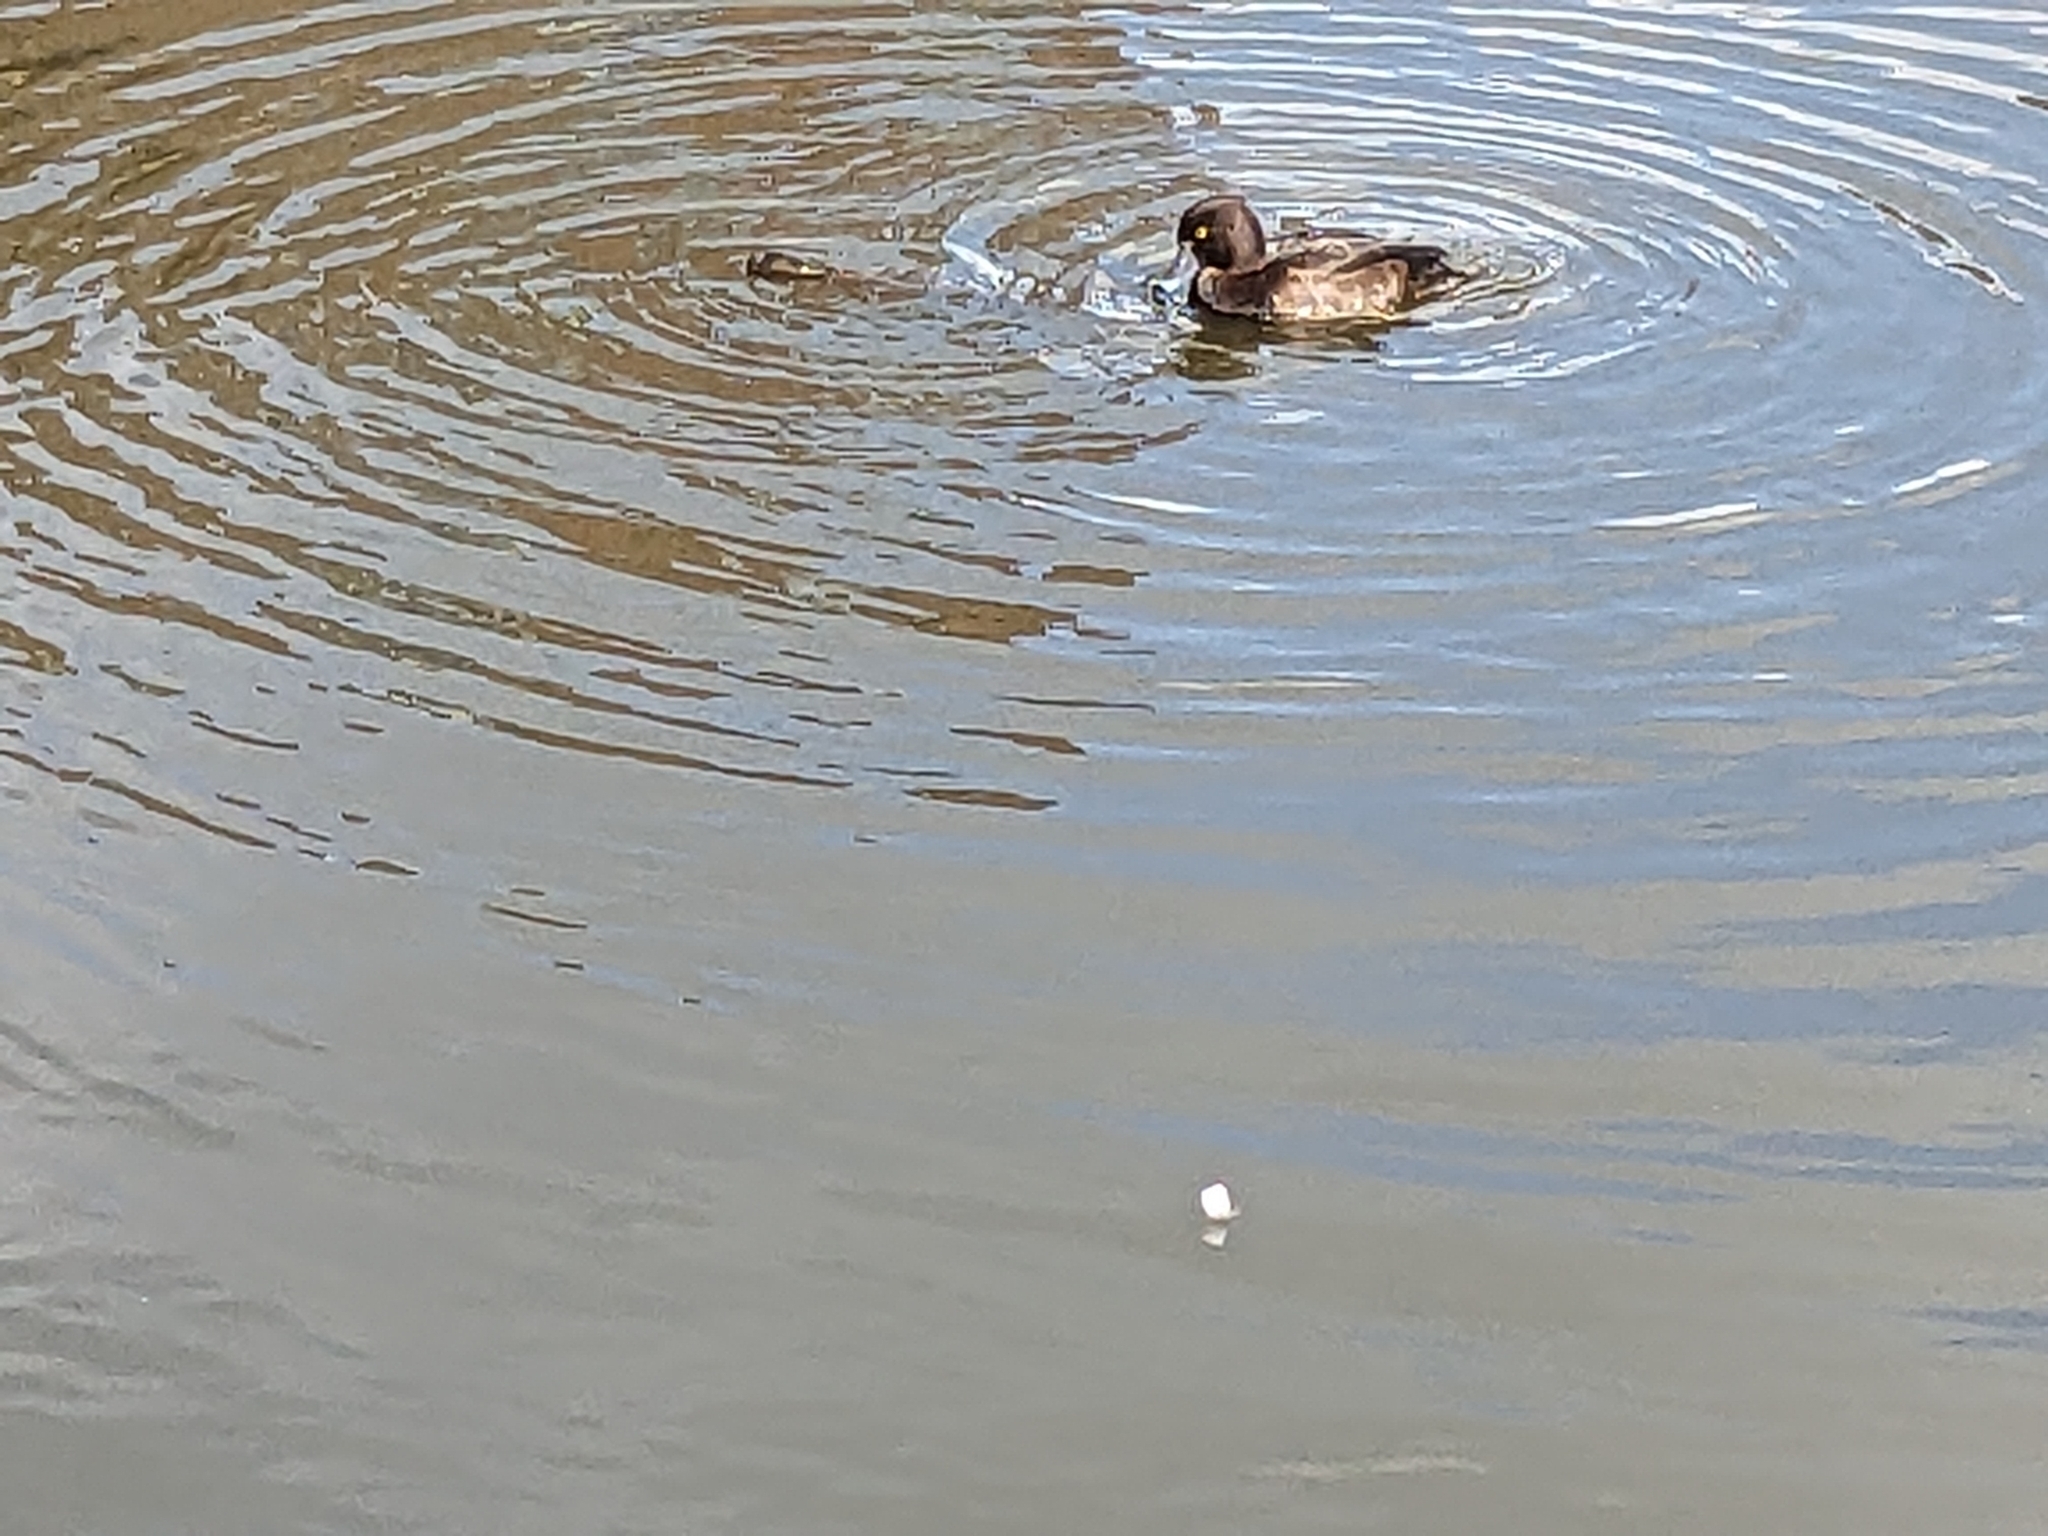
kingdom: Animalia
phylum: Chordata
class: Aves
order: Anseriformes
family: Anatidae
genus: Aythya
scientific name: Aythya fuligula
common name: Tufted duck
